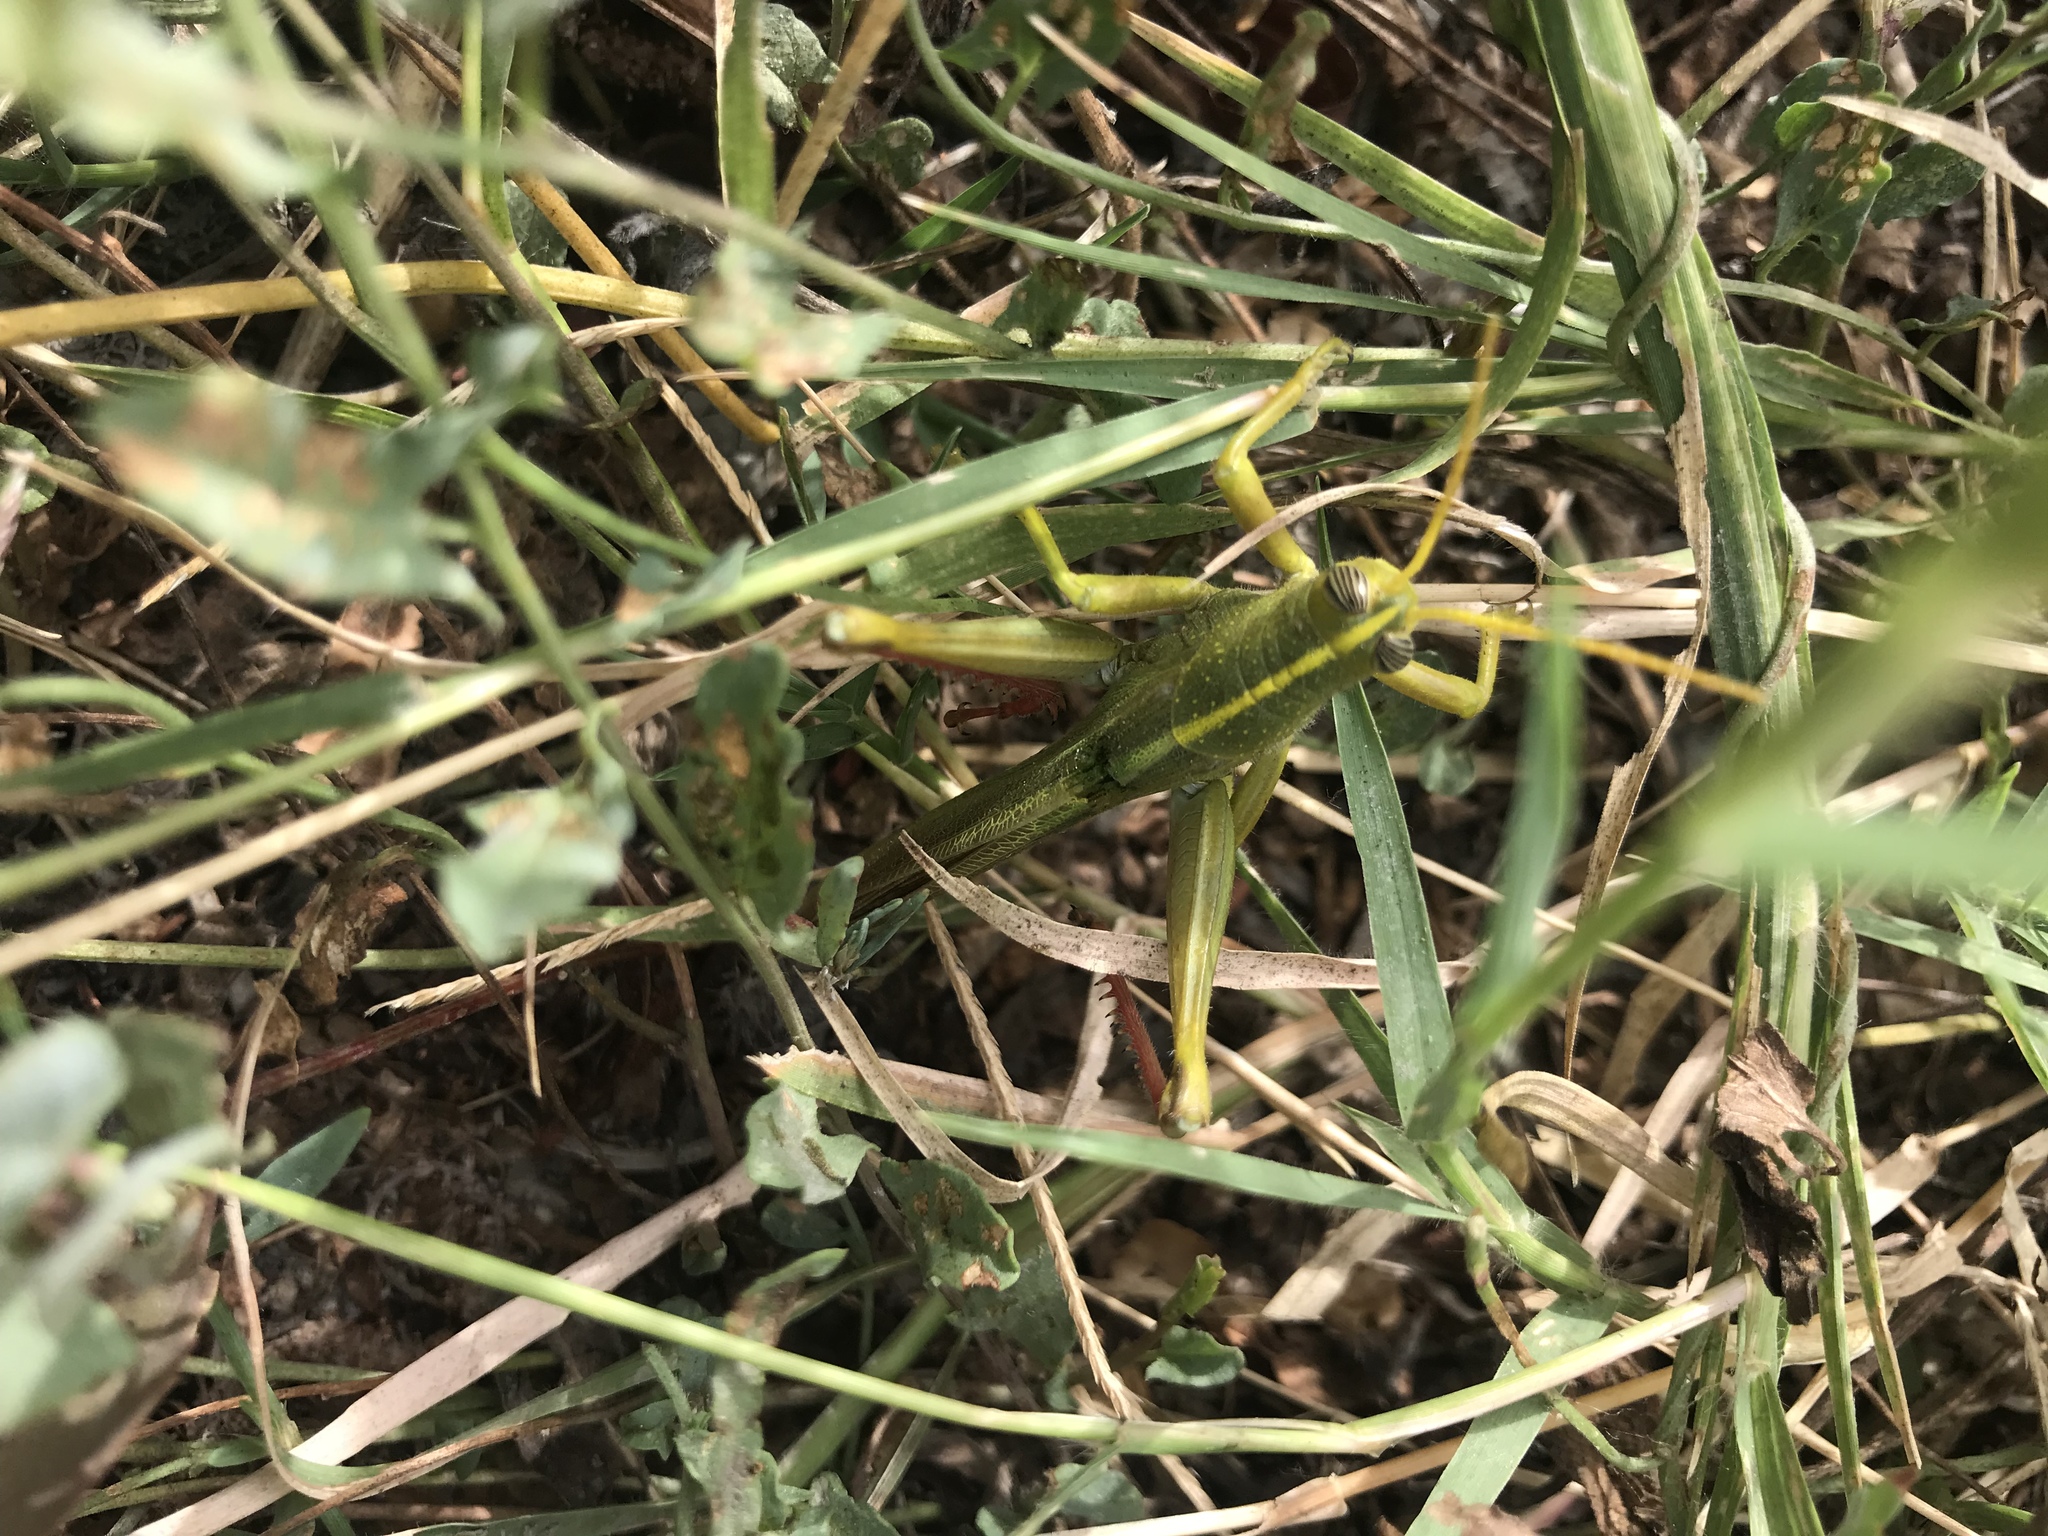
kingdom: Animalia
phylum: Arthropoda
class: Insecta
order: Orthoptera
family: Acrididae
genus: Schistocerca
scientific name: Schistocerca lineata
